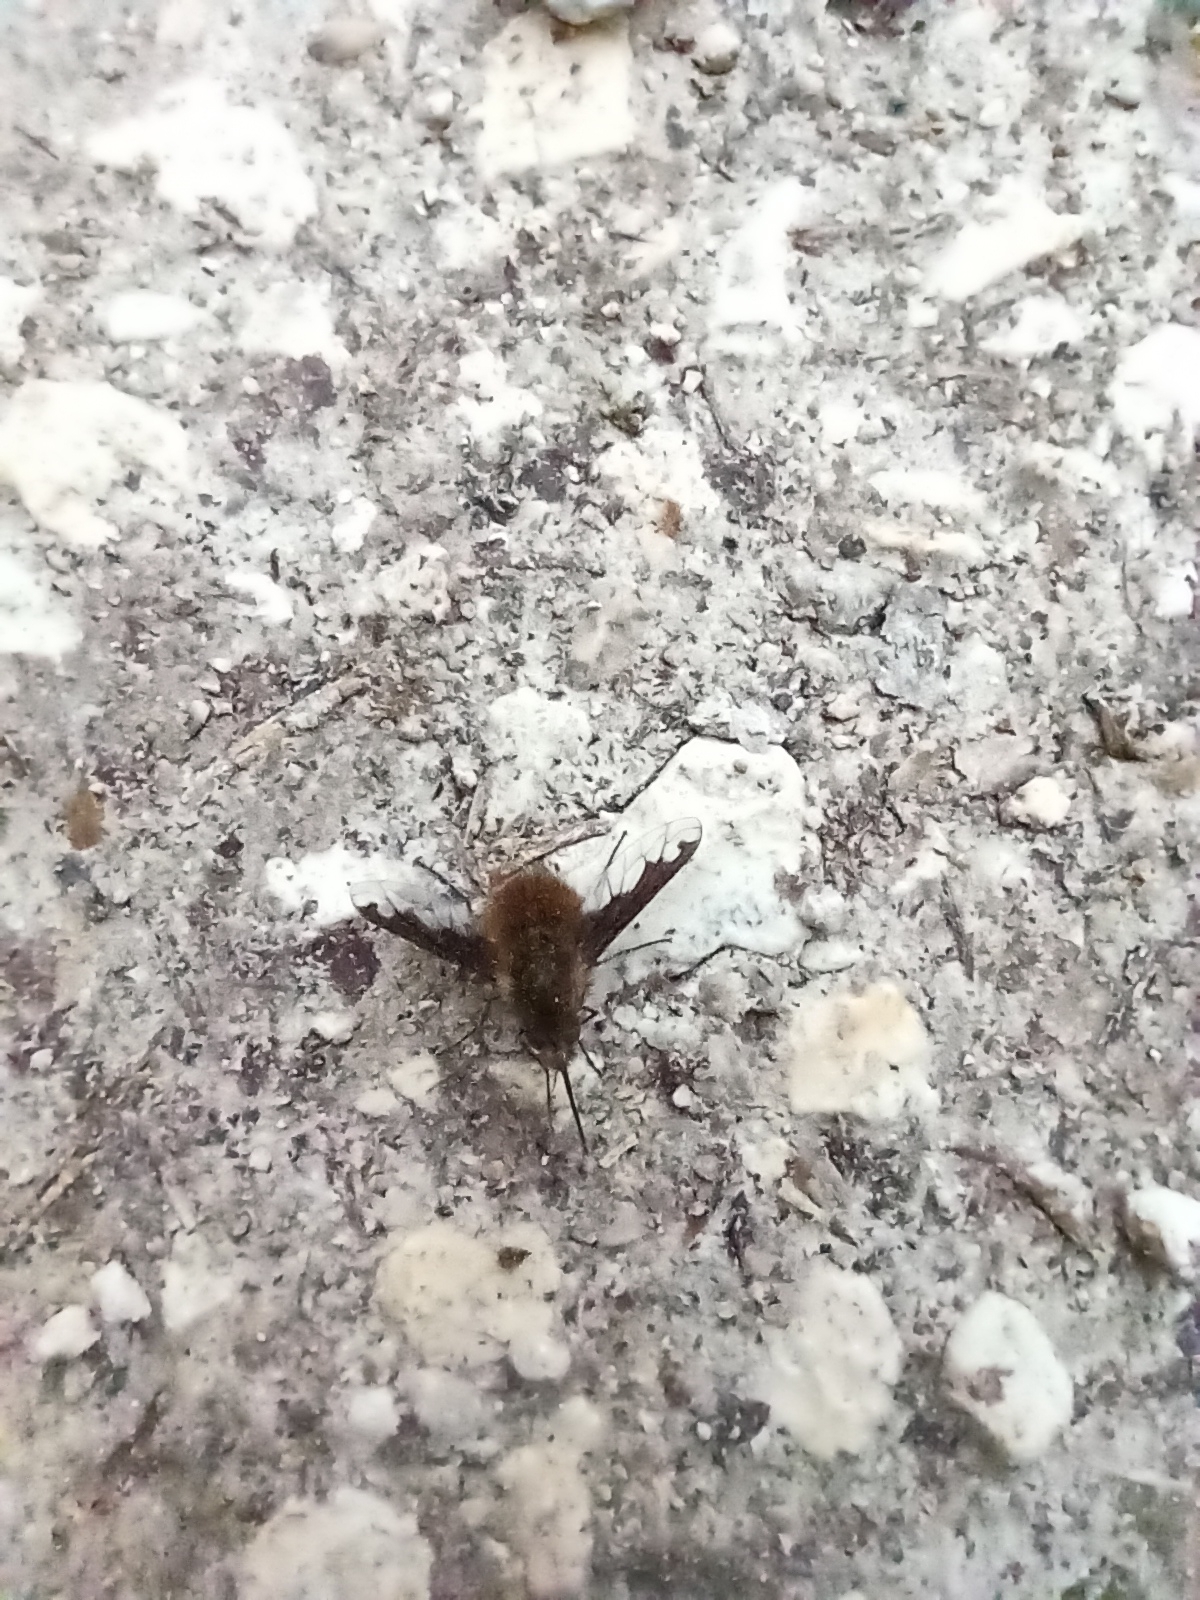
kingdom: Animalia
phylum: Arthropoda
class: Insecta
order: Diptera
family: Bombyliidae
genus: Bombylius
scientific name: Bombylius major
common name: Bee fly
